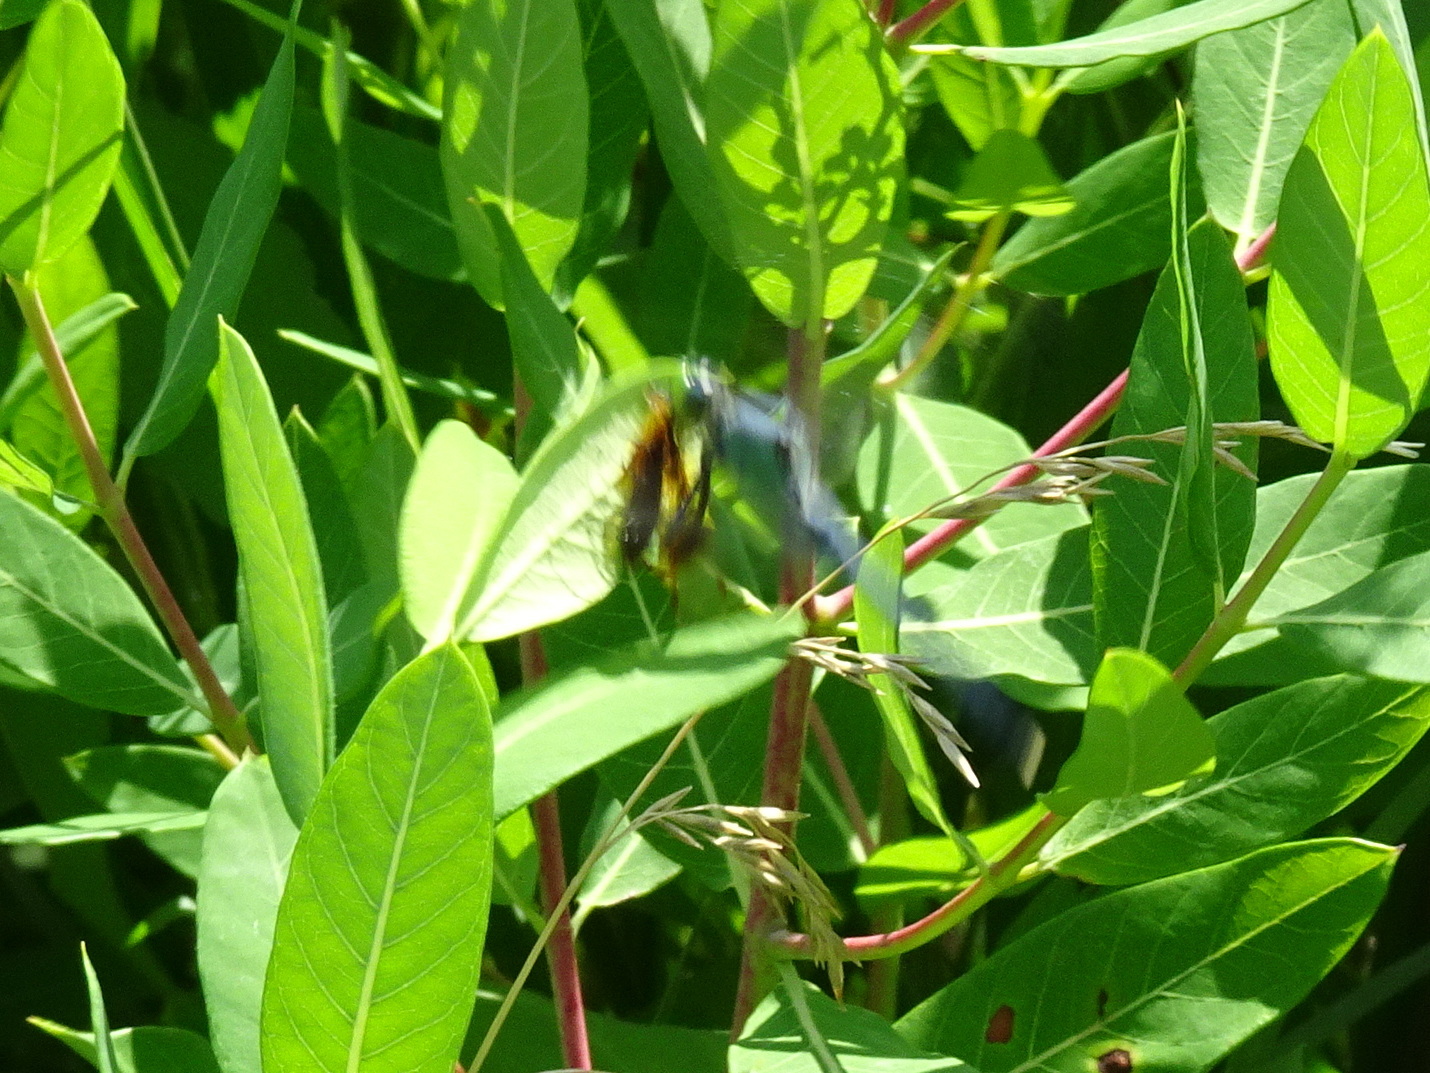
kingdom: Animalia
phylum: Arthropoda
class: Insecta
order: Odonata
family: Libellulidae
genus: Erythemis
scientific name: Erythemis simplicicollis
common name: Eastern pondhawk
